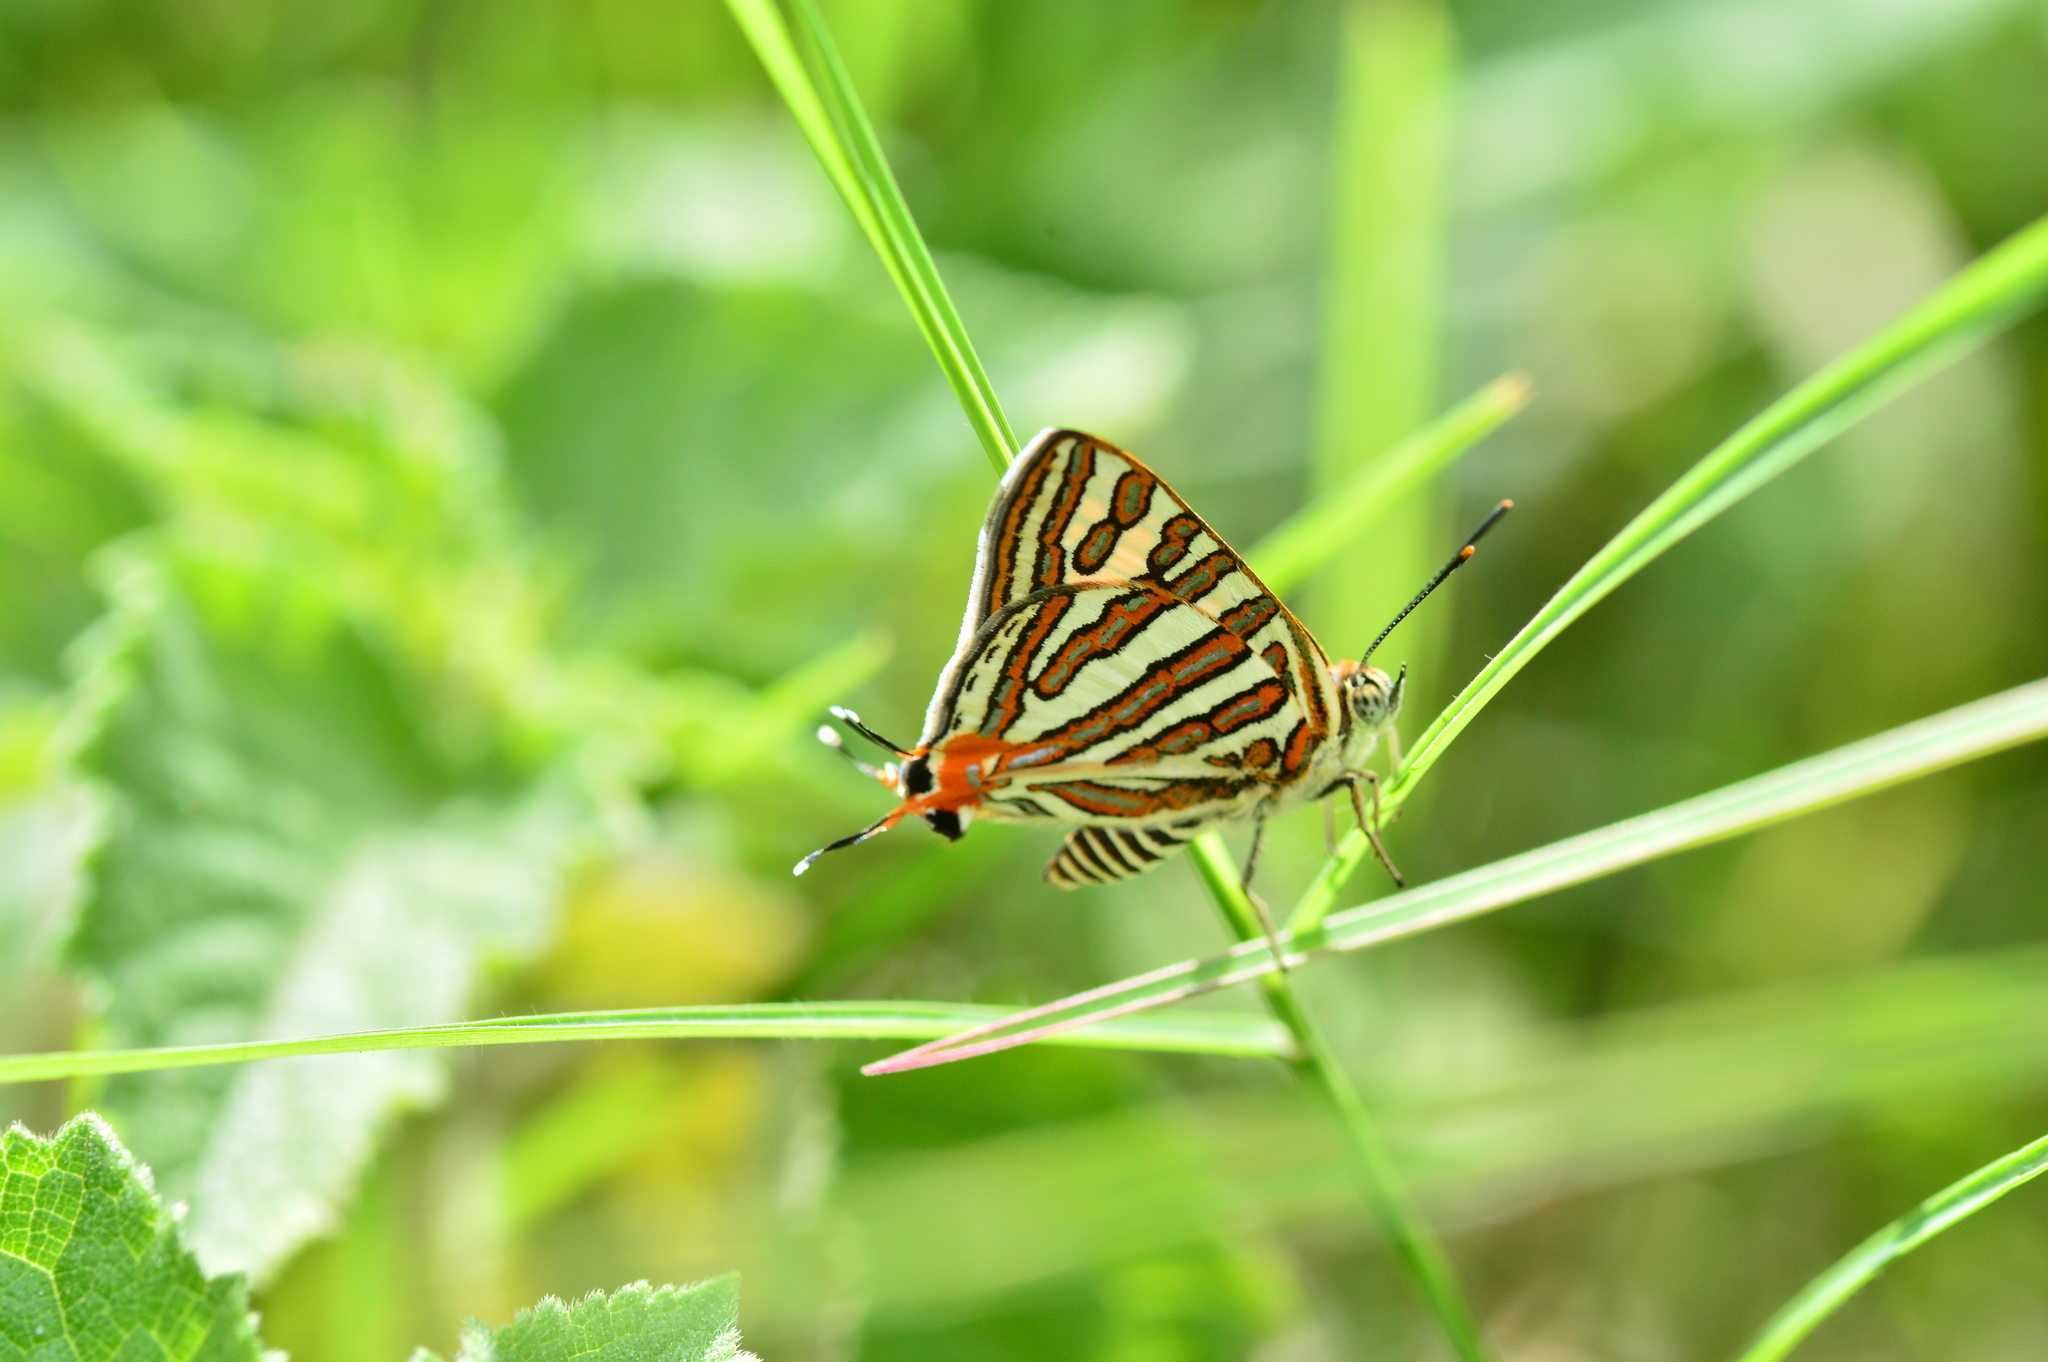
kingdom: Animalia
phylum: Arthropoda
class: Insecta
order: Lepidoptera
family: Lycaenidae
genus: Cigaritis
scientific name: Cigaritis vulcanus
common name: Common silverline
